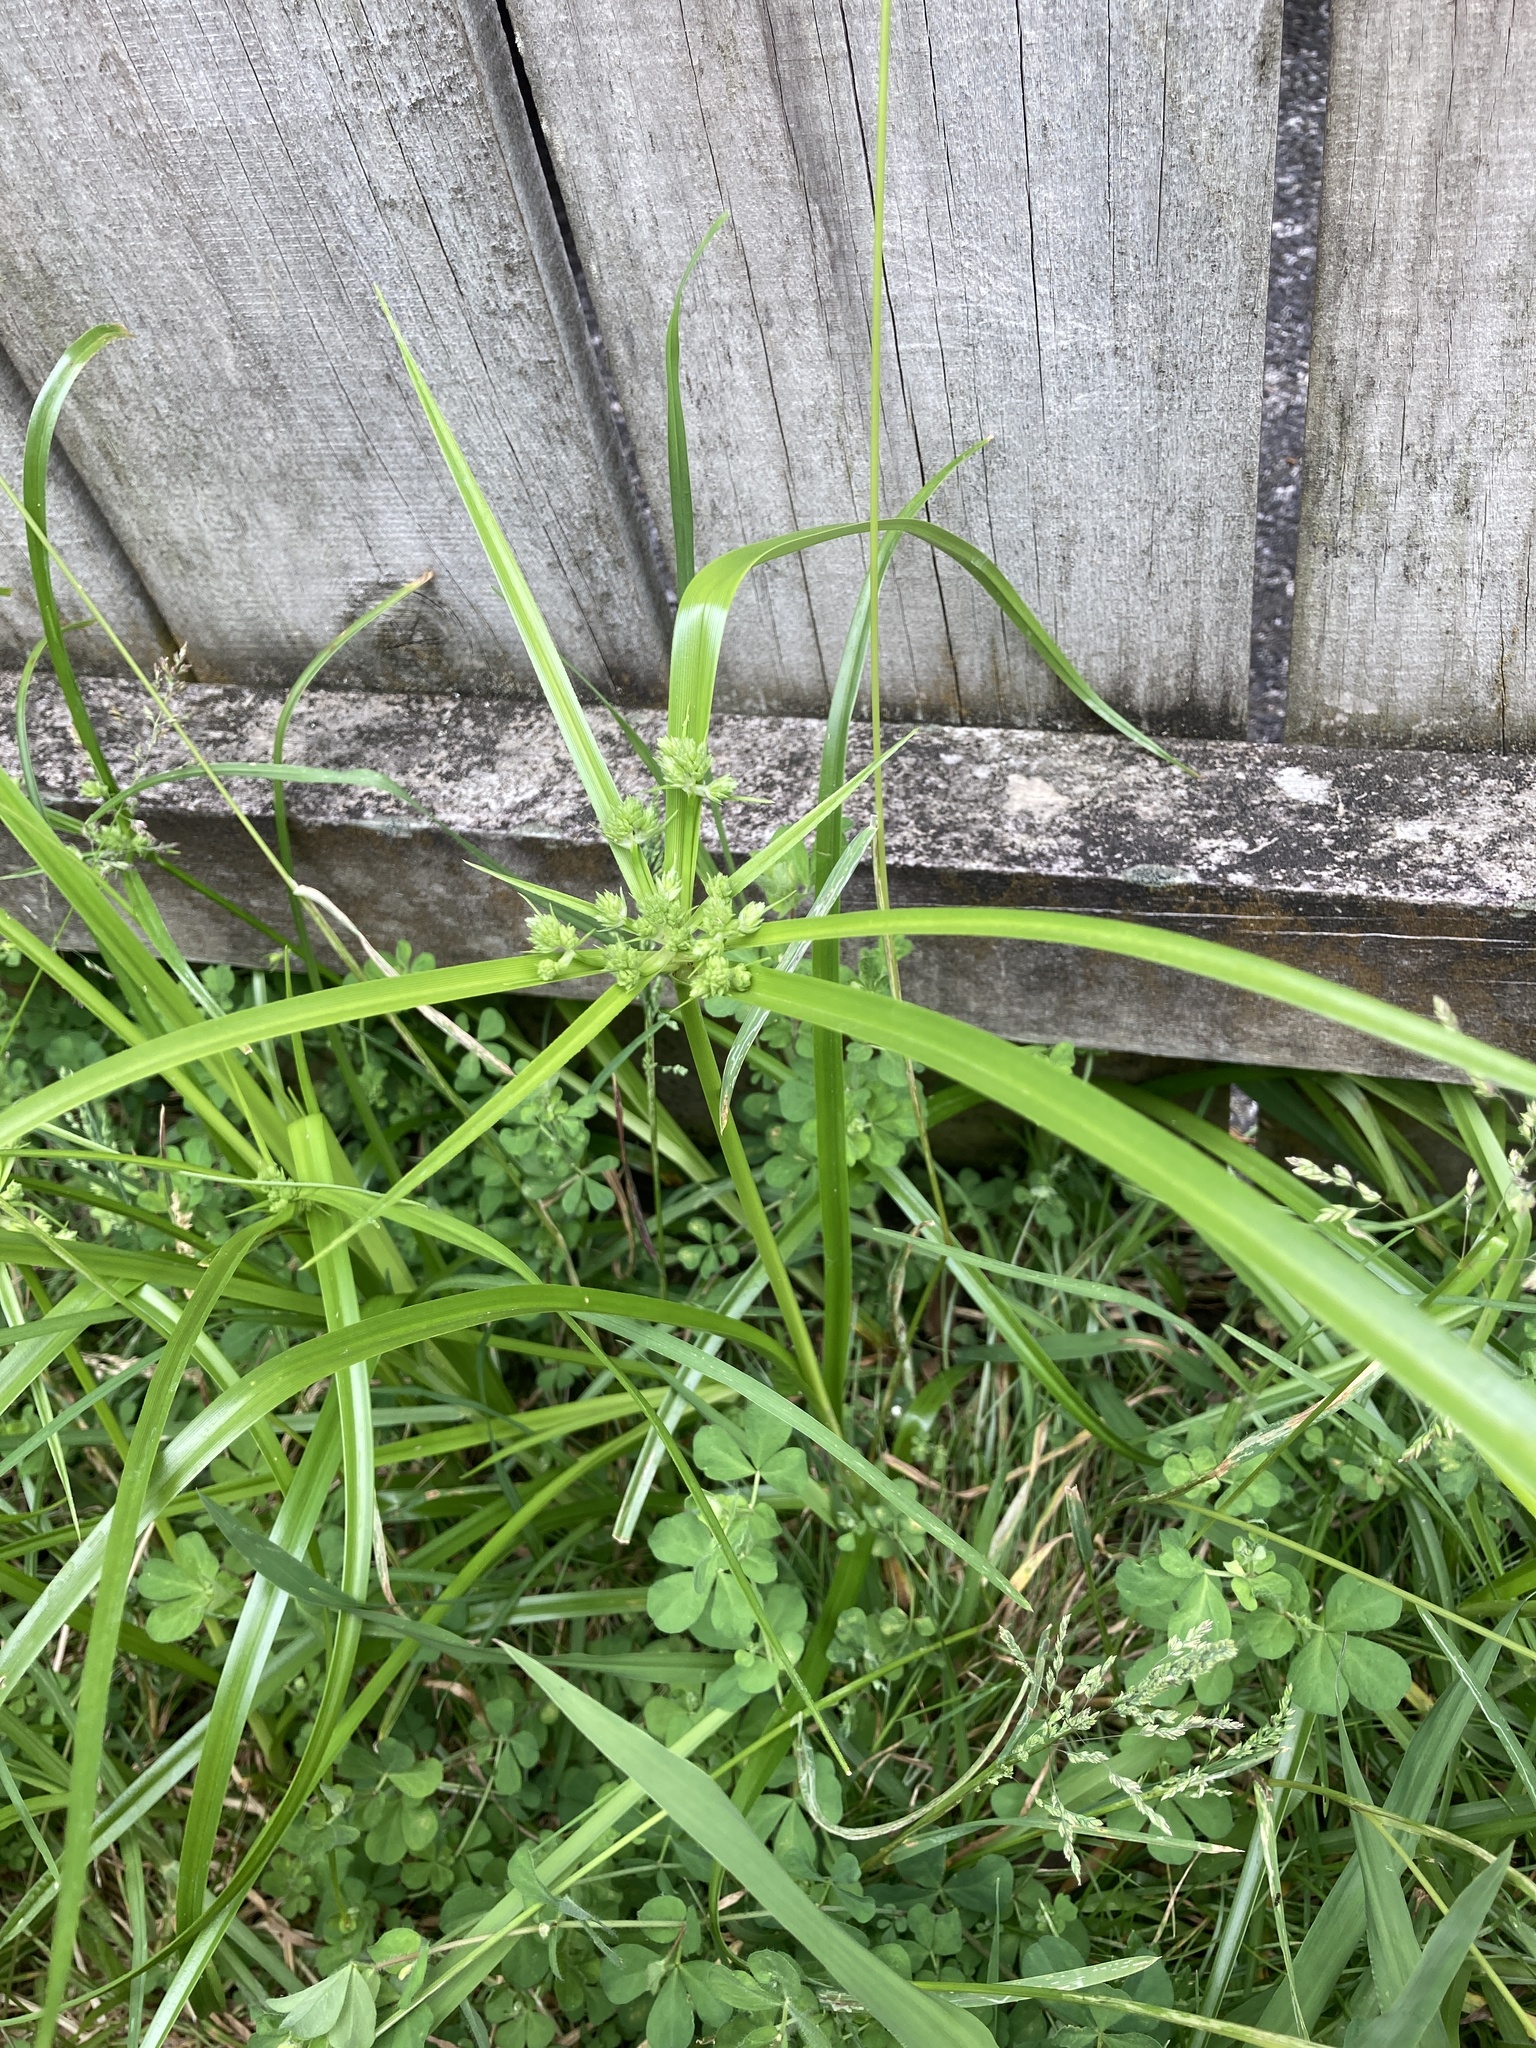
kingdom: Plantae
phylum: Tracheophyta
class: Liliopsida
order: Poales
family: Cyperaceae
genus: Cyperus
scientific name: Cyperus eragrostis
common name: Tall flatsedge
